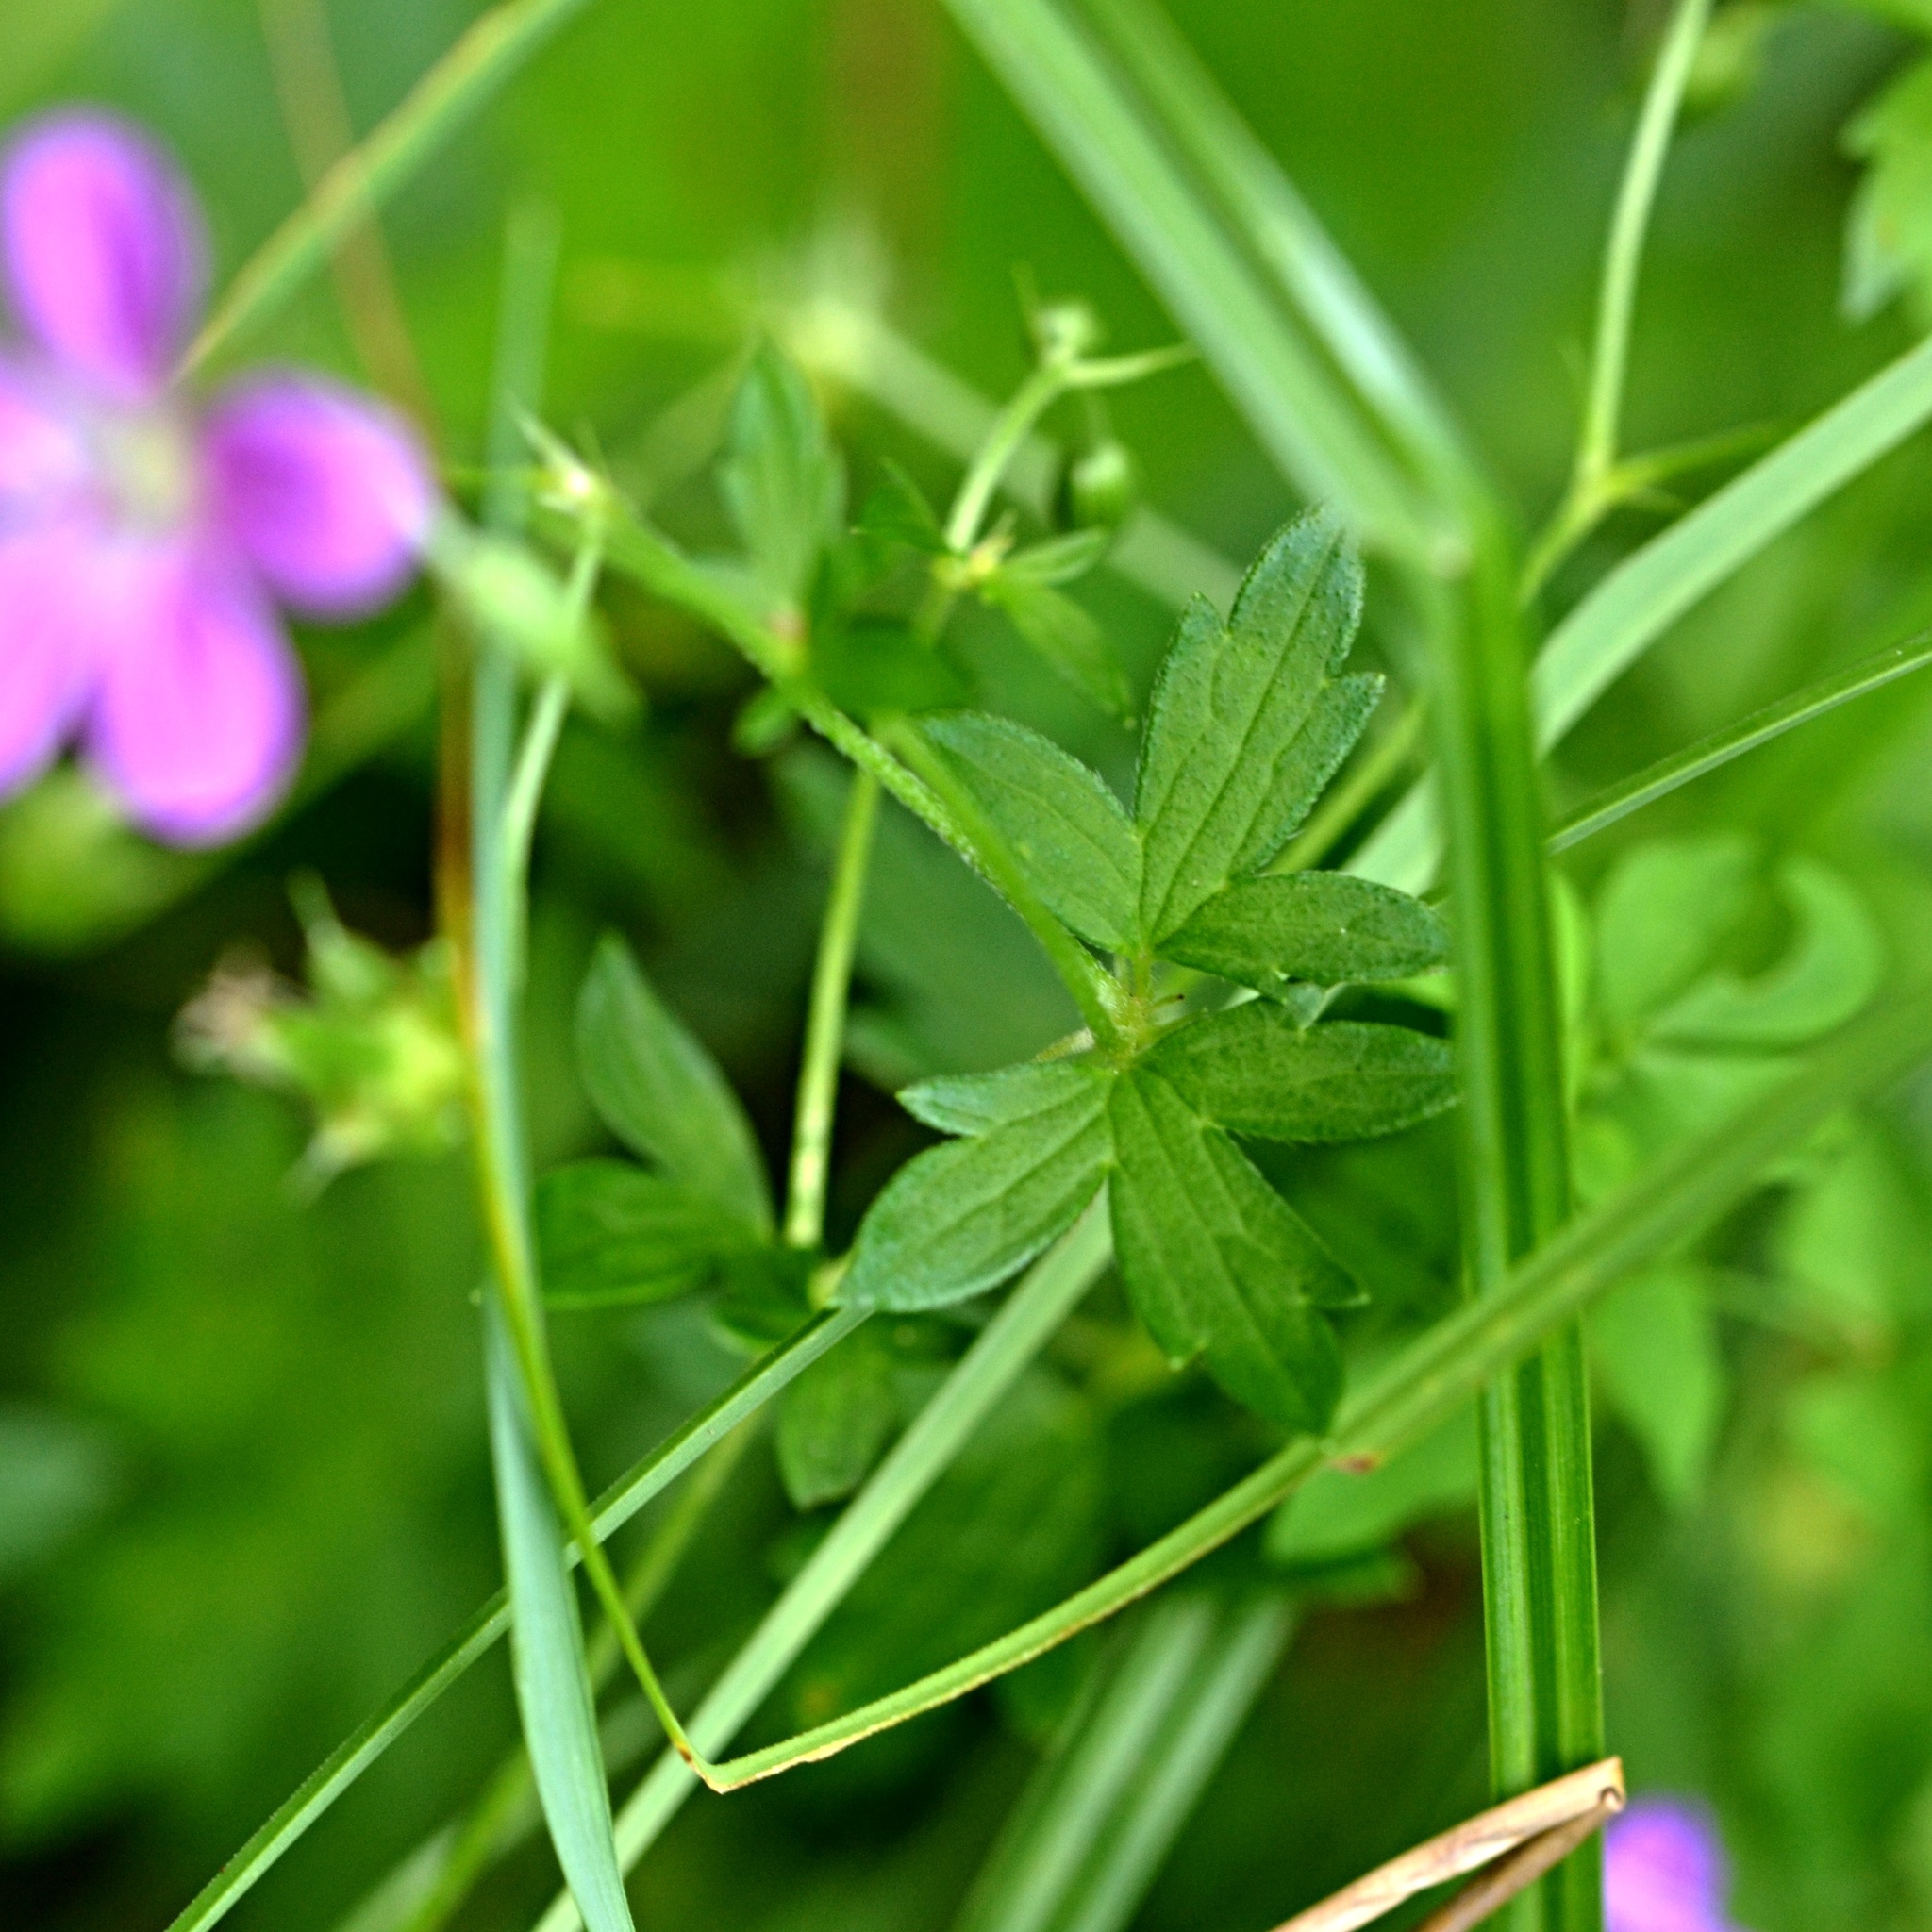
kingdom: Plantae
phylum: Tracheophyta
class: Magnoliopsida
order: Geraniales
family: Geraniaceae
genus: Geranium
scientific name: Geranium palustre
